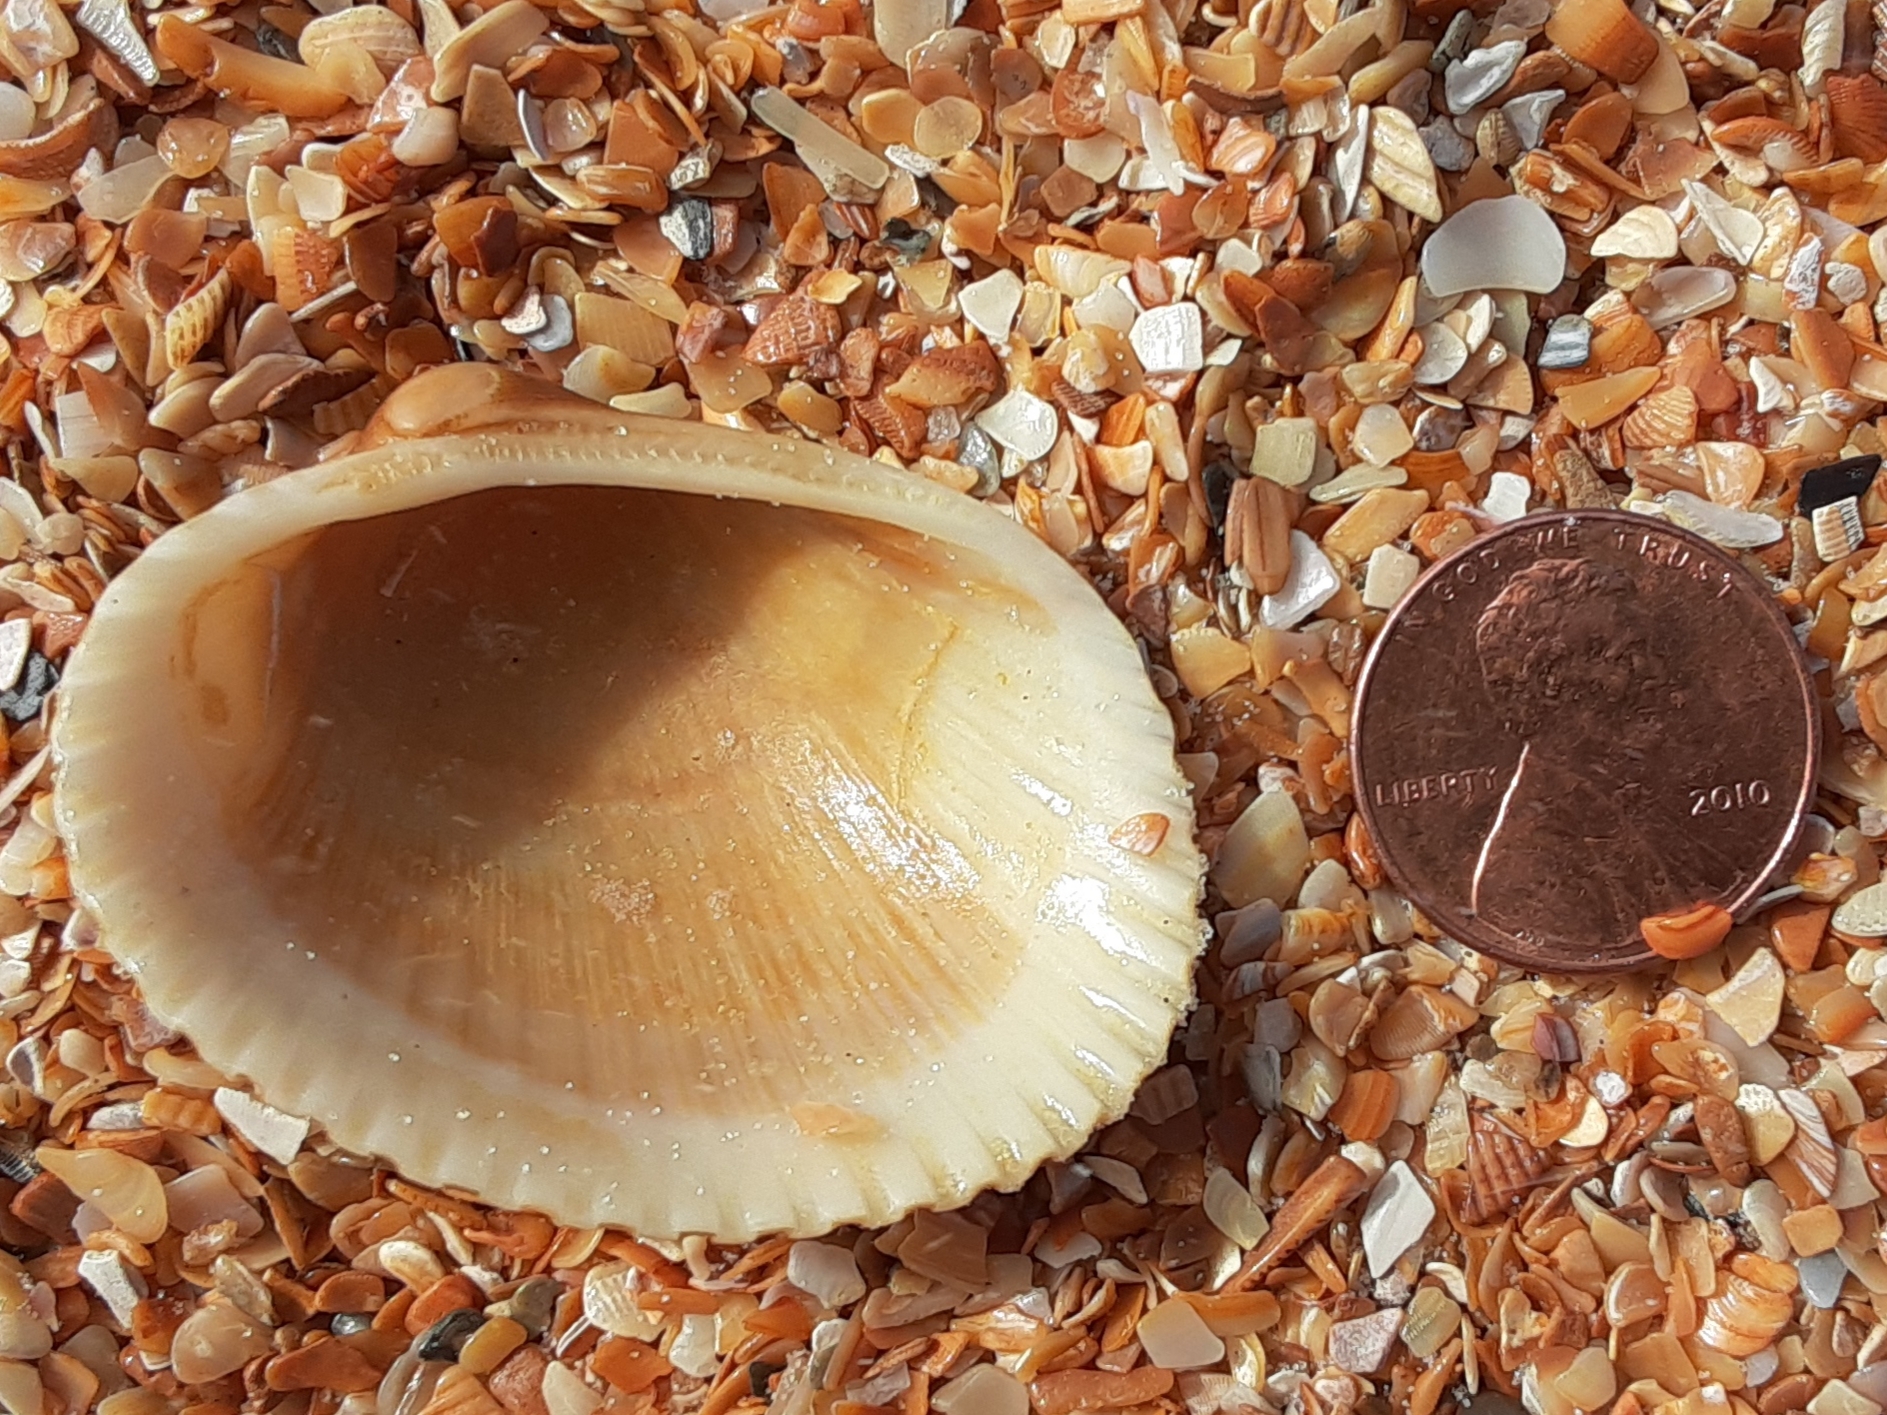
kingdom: Animalia
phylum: Mollusca
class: Bivalvia
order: Arcida
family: Arcidae
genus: Lunarca
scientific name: Lunarca ovalis
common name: Blood ark
